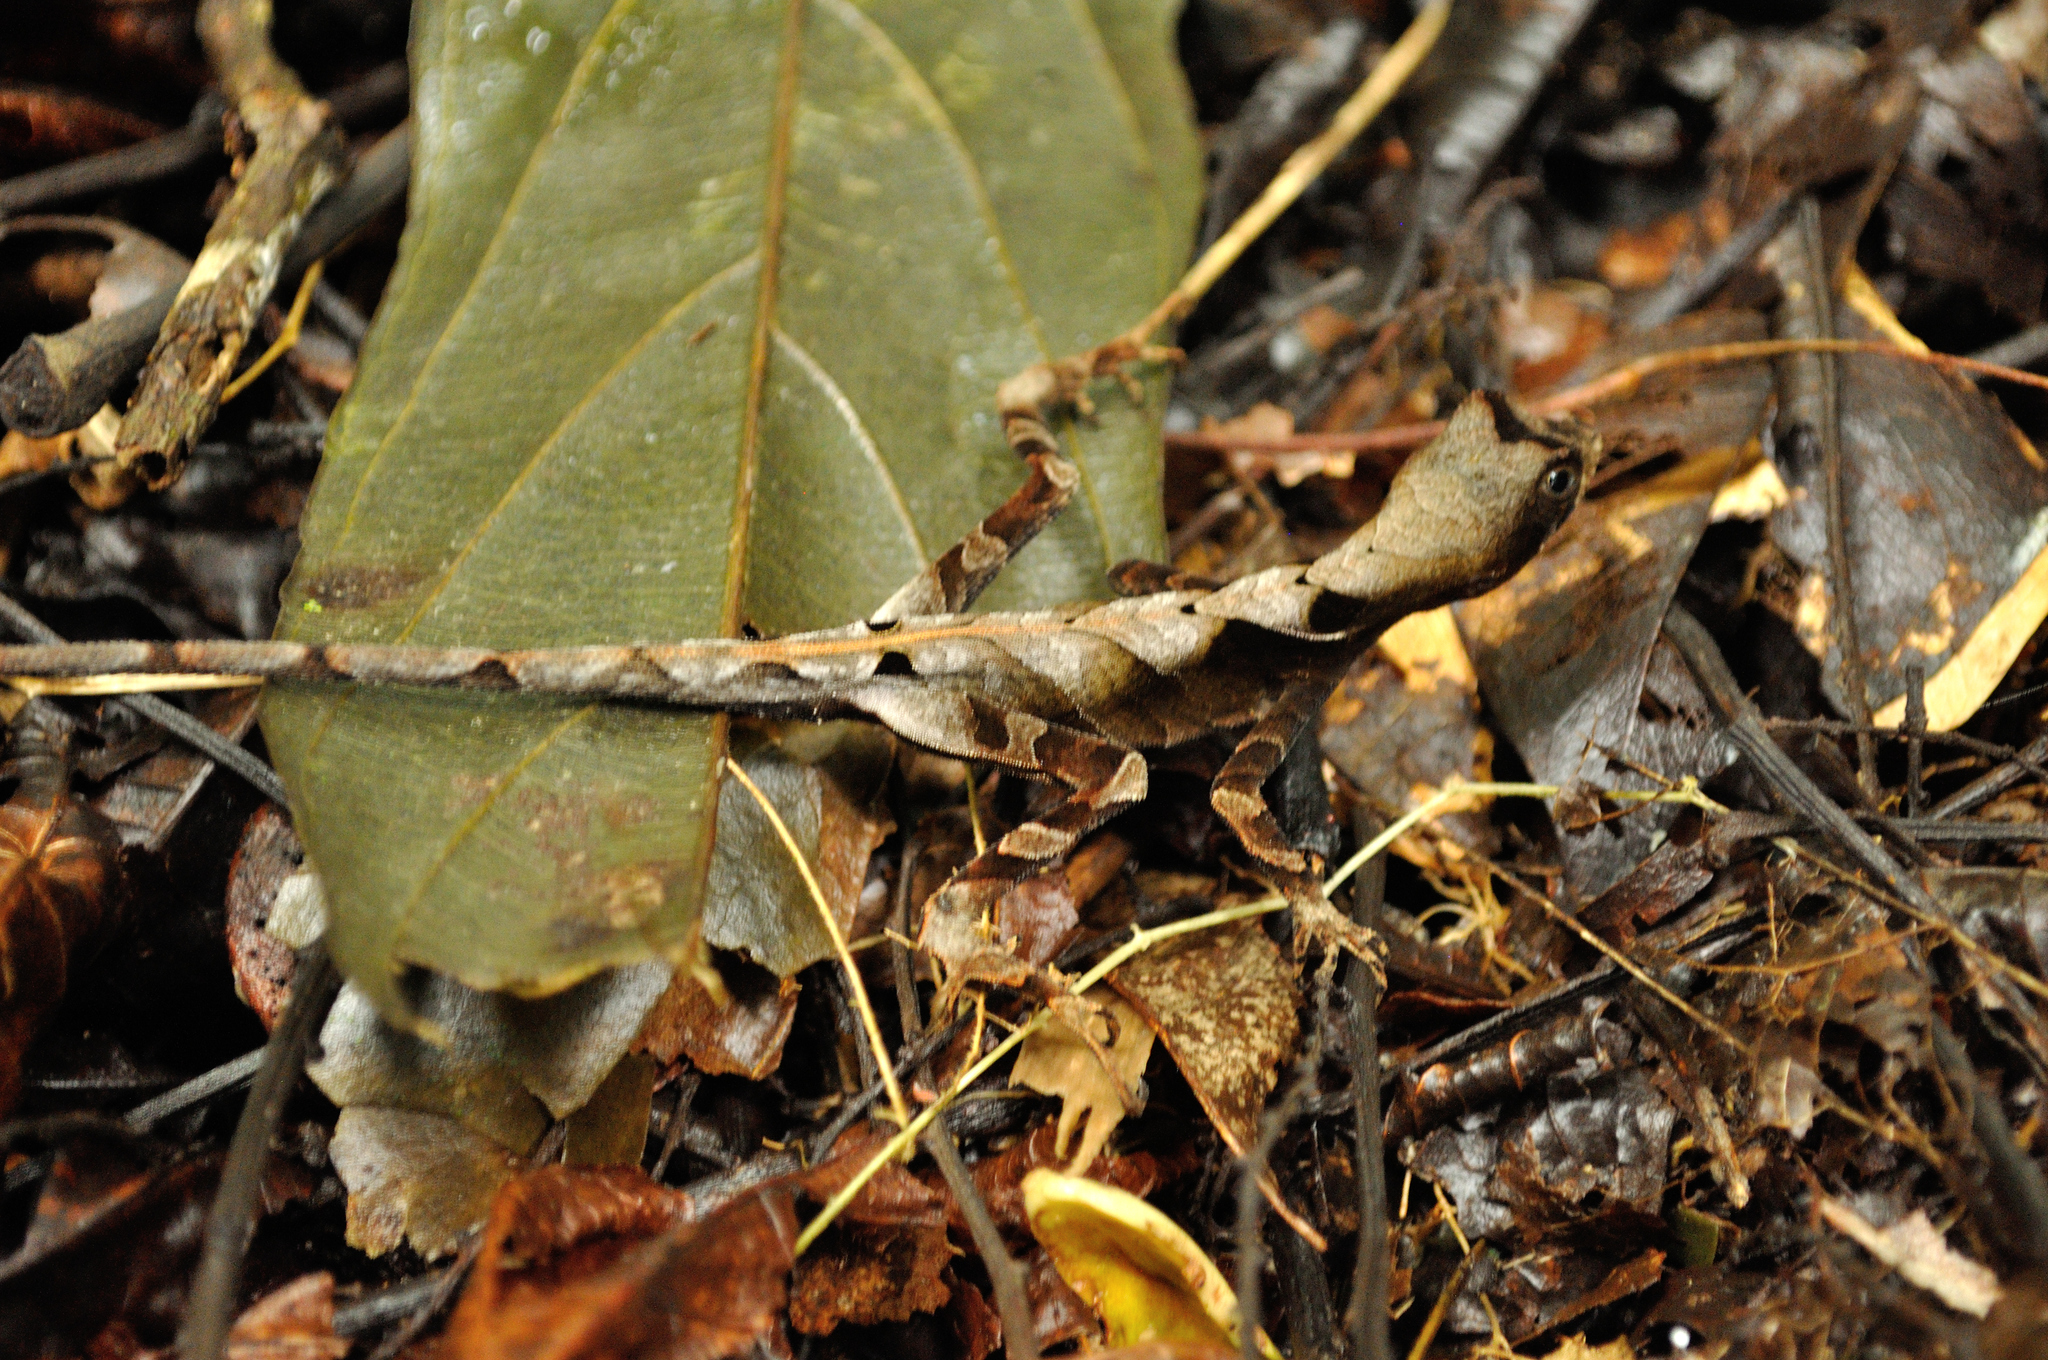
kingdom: Animalia
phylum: Chordata
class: Squamata
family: Dactyloidae
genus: Anolis
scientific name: Anolis scypheus
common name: Yellow-tongued anole
